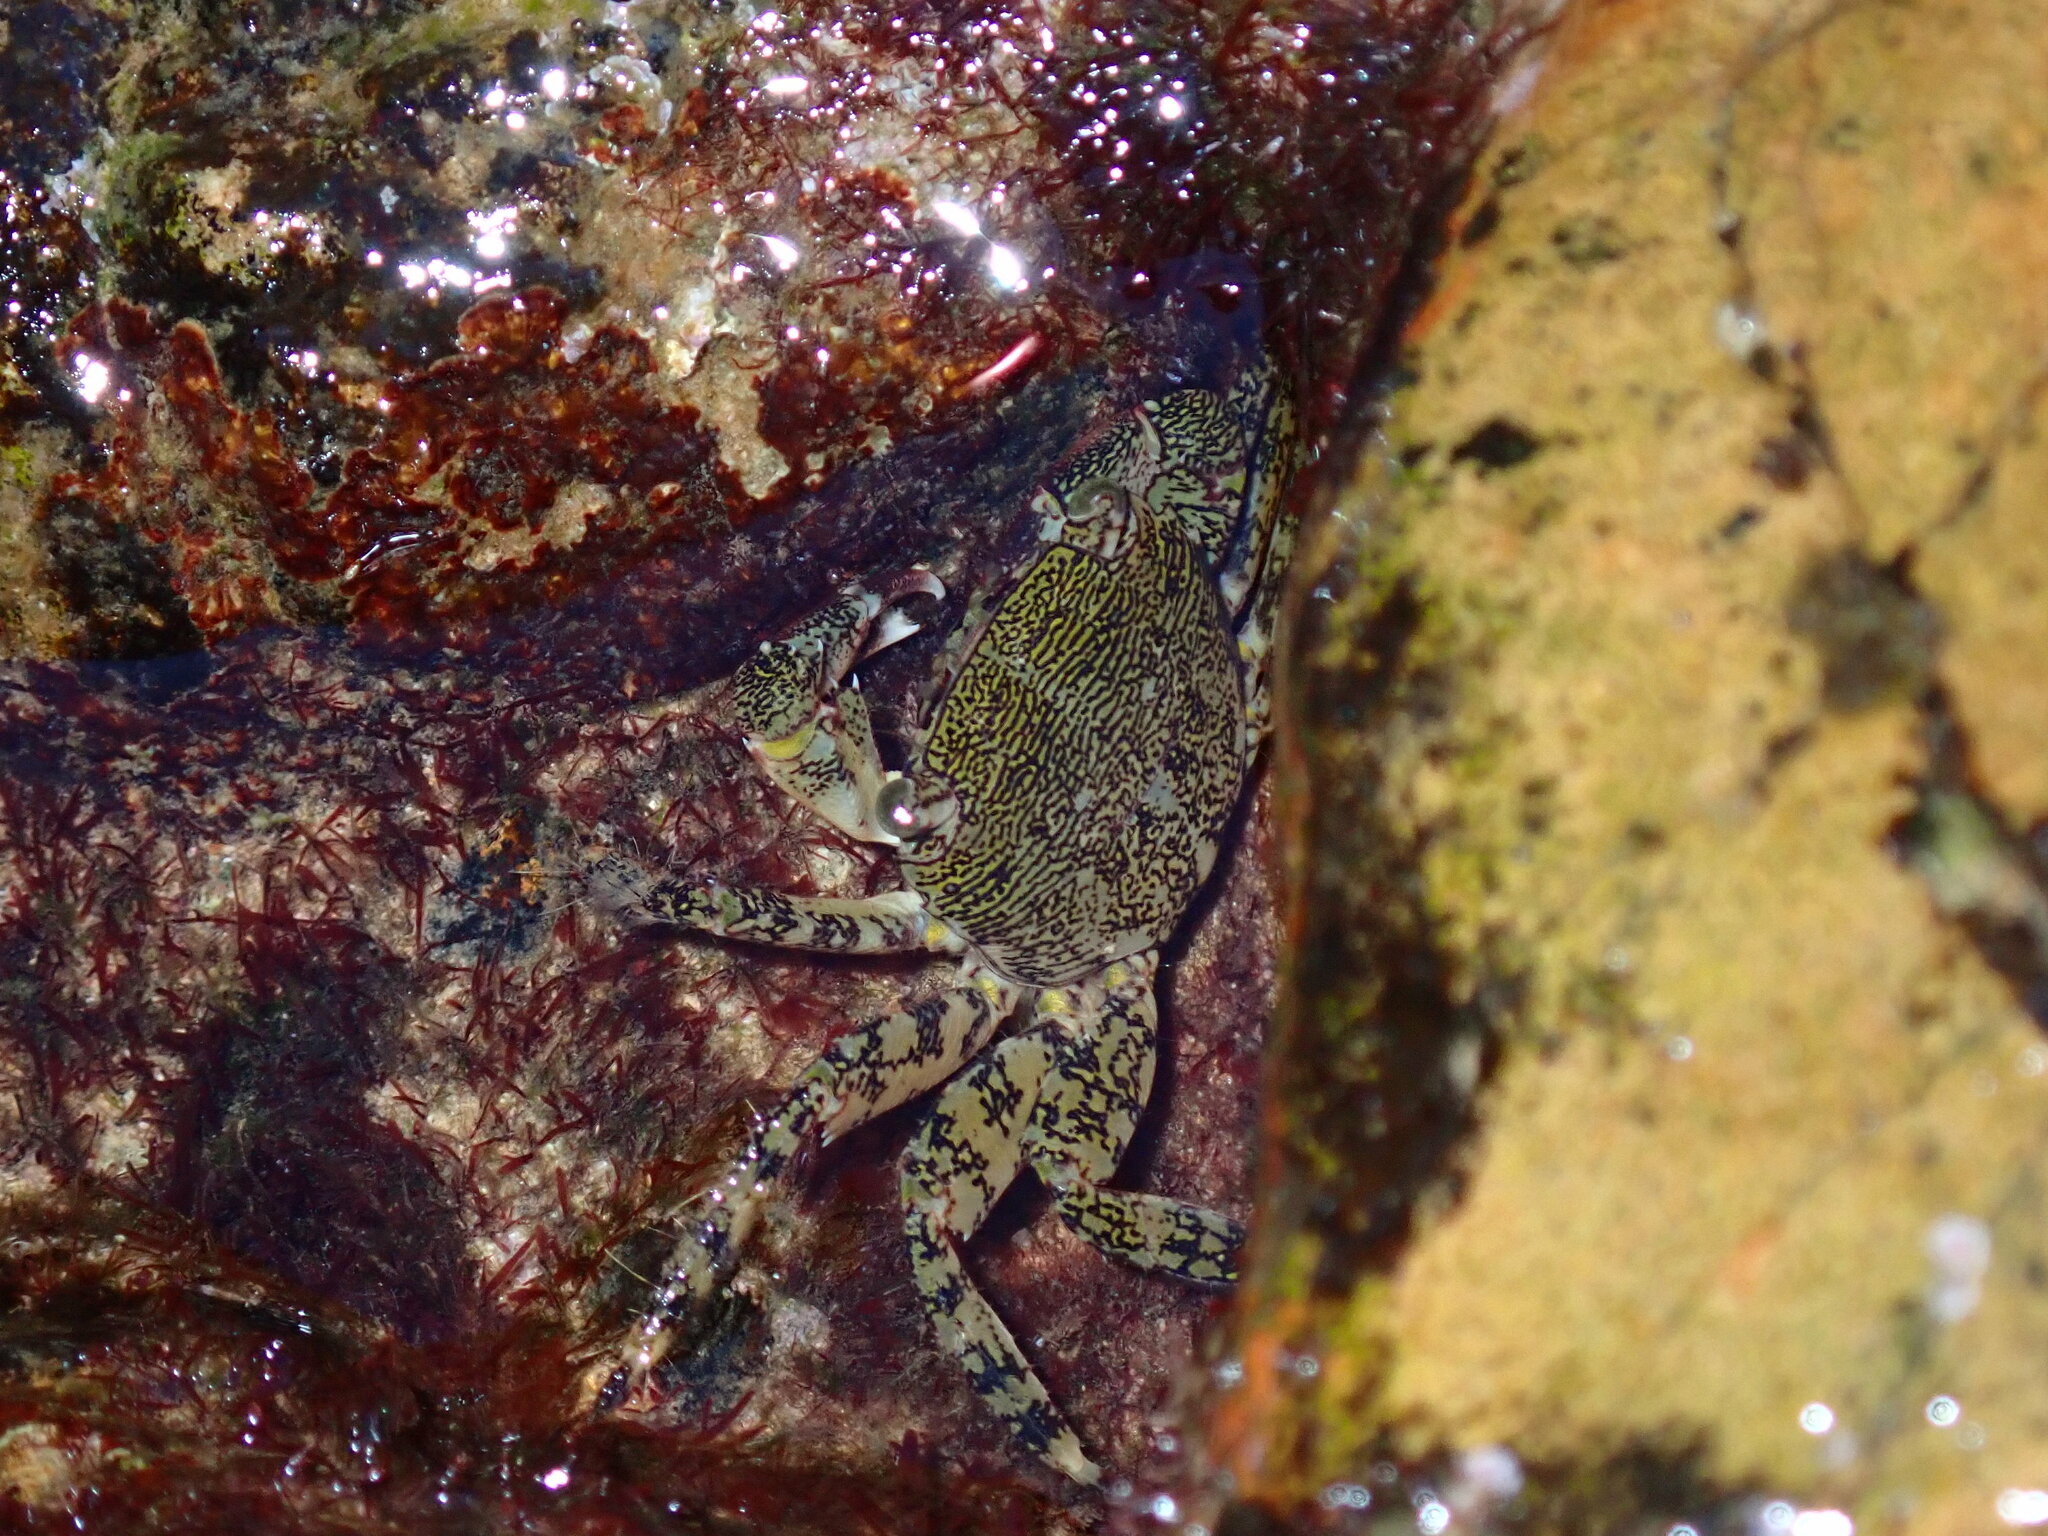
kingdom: Animalia
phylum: Arthropoda
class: Malacostraca
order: Decapoda
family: Grapsidae
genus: Pachygrapsus
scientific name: Pachygrapsus marmoratus
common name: Marbled rock crab
